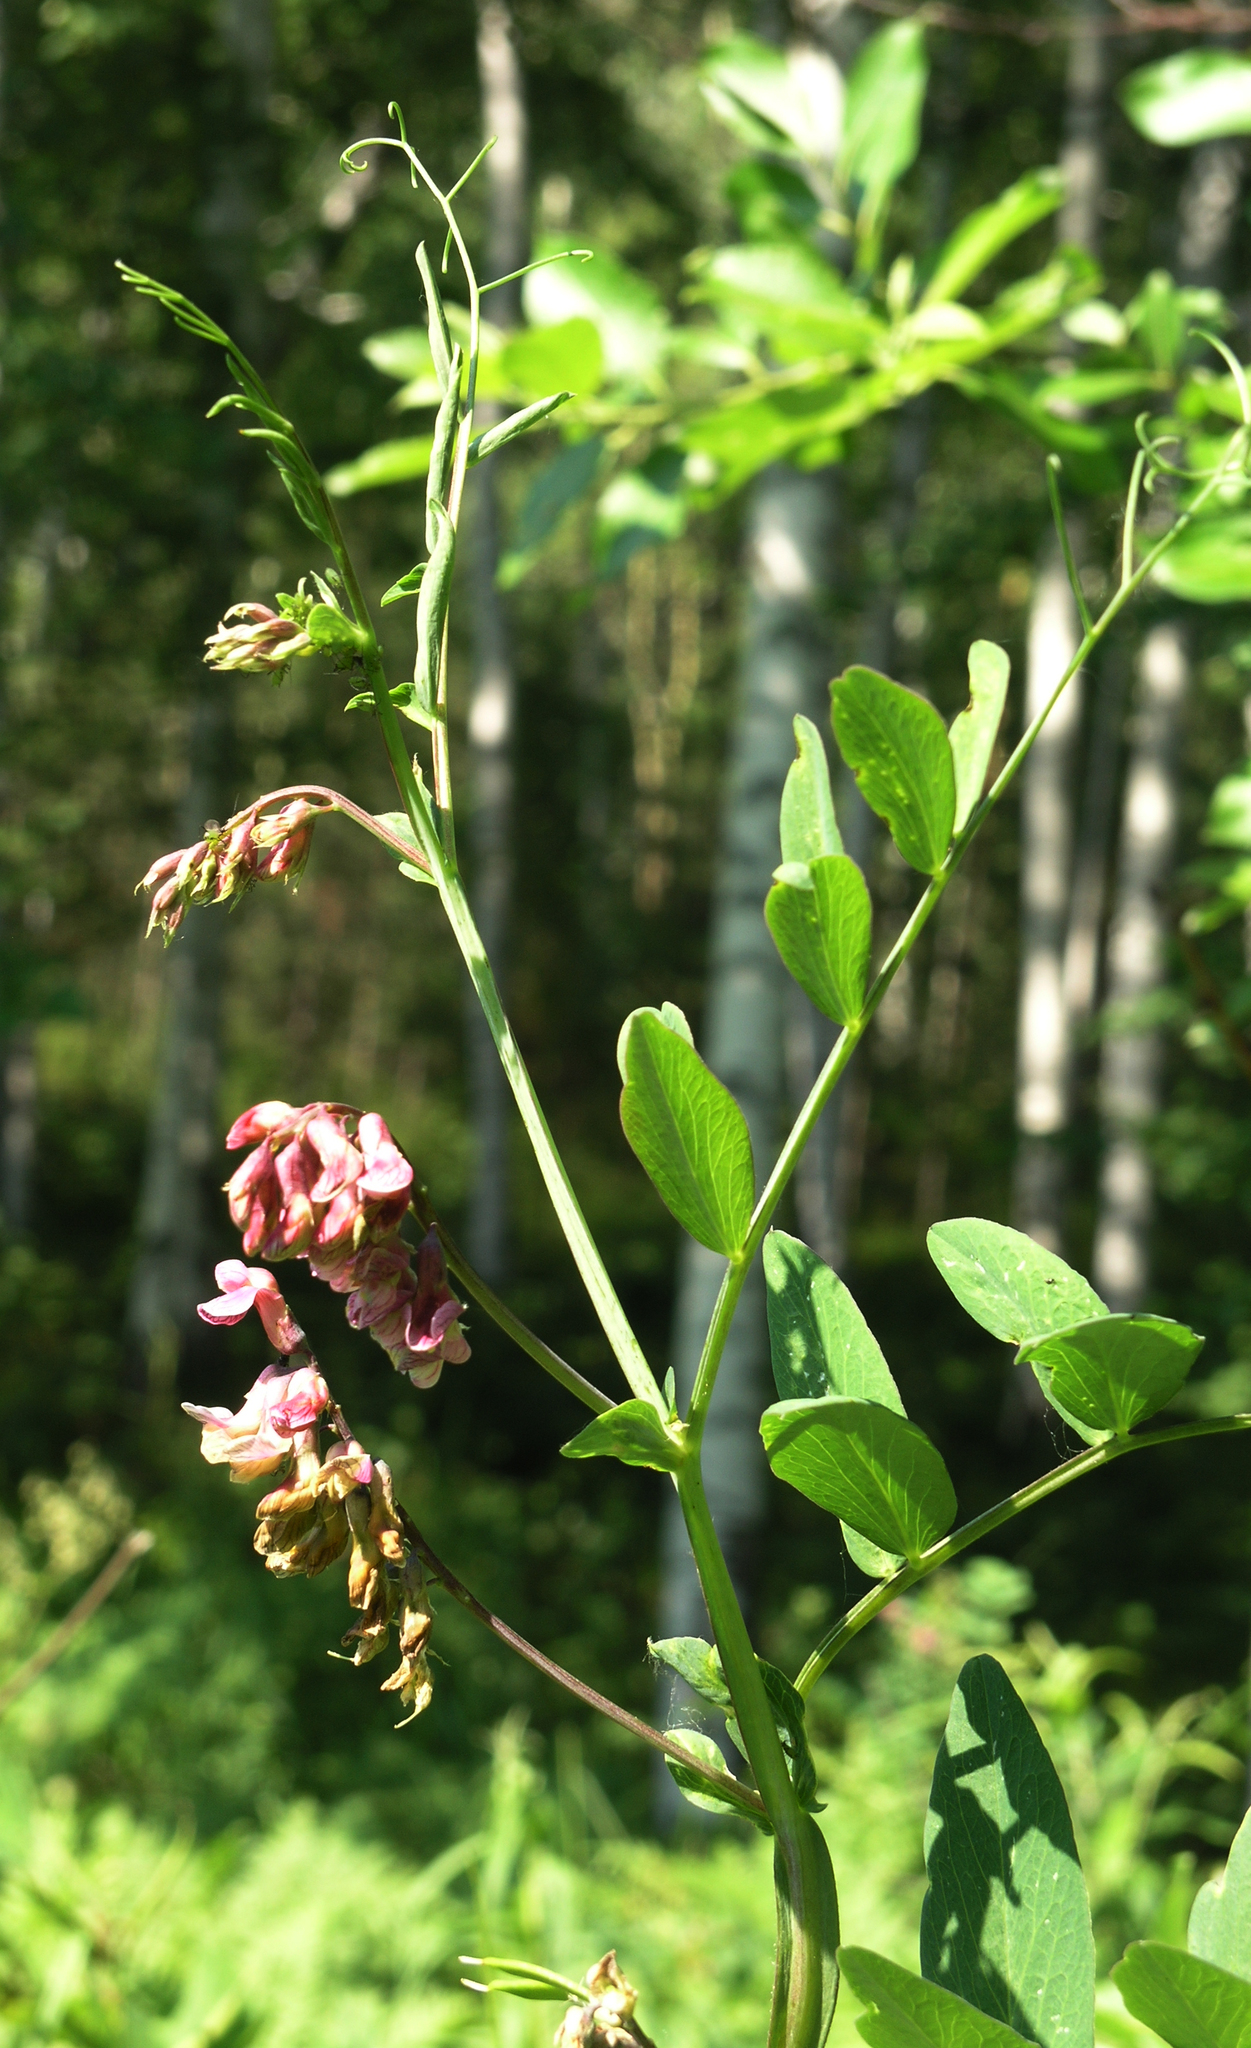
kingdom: Plantae
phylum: Tracheophyta
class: Magnoliopsida
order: Fabales
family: Fabaceae
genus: Lathyrus
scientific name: Lathyrus pisiformis
